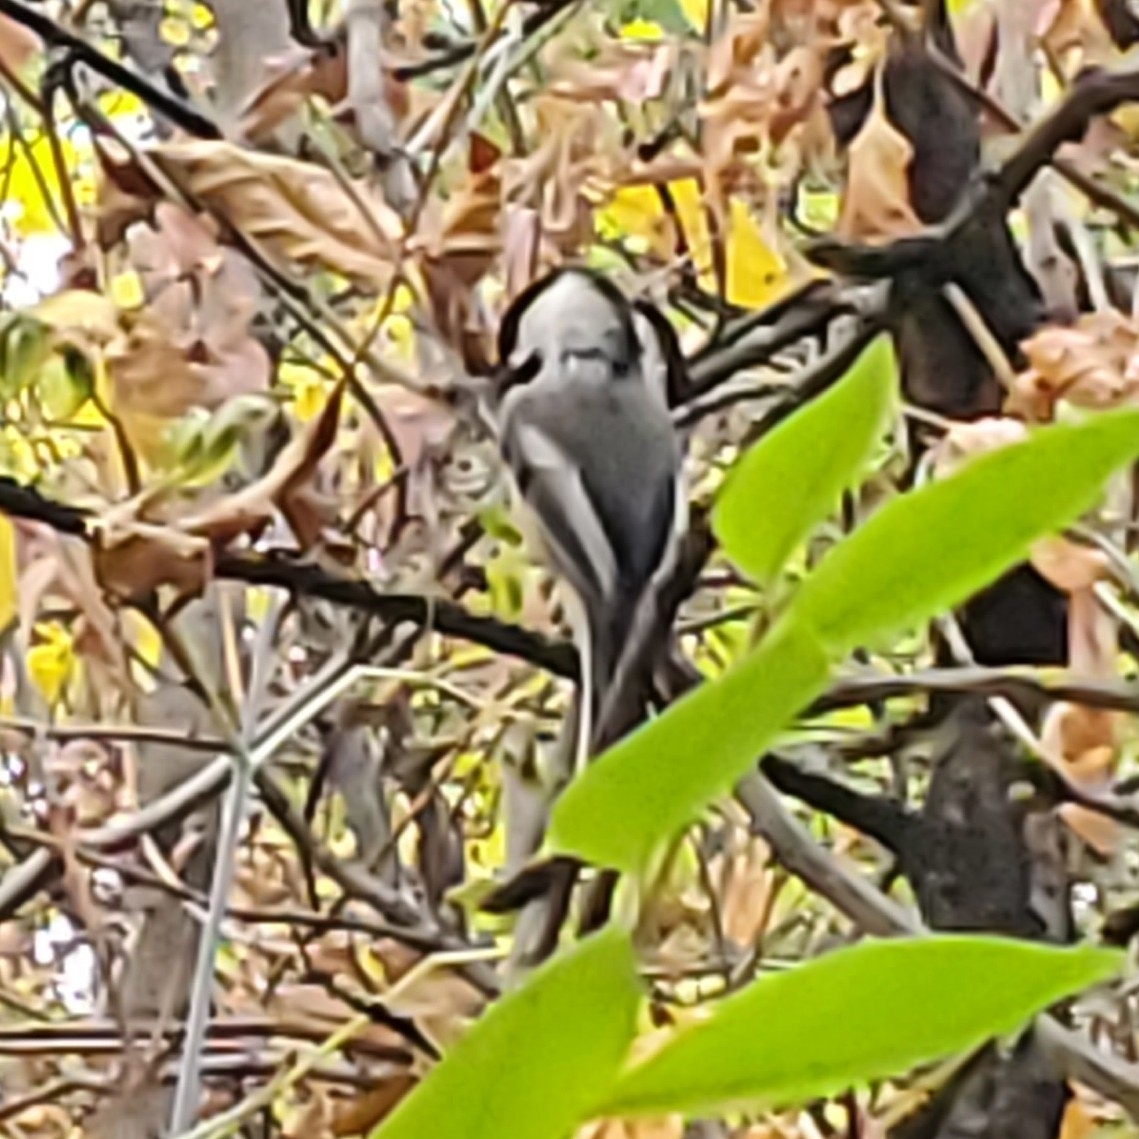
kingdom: Animalia
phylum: Chordata
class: Aves
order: Passeriformes
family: Paridae
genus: Poecile
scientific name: Poecile atricapillus
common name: Black-capped chickadee
